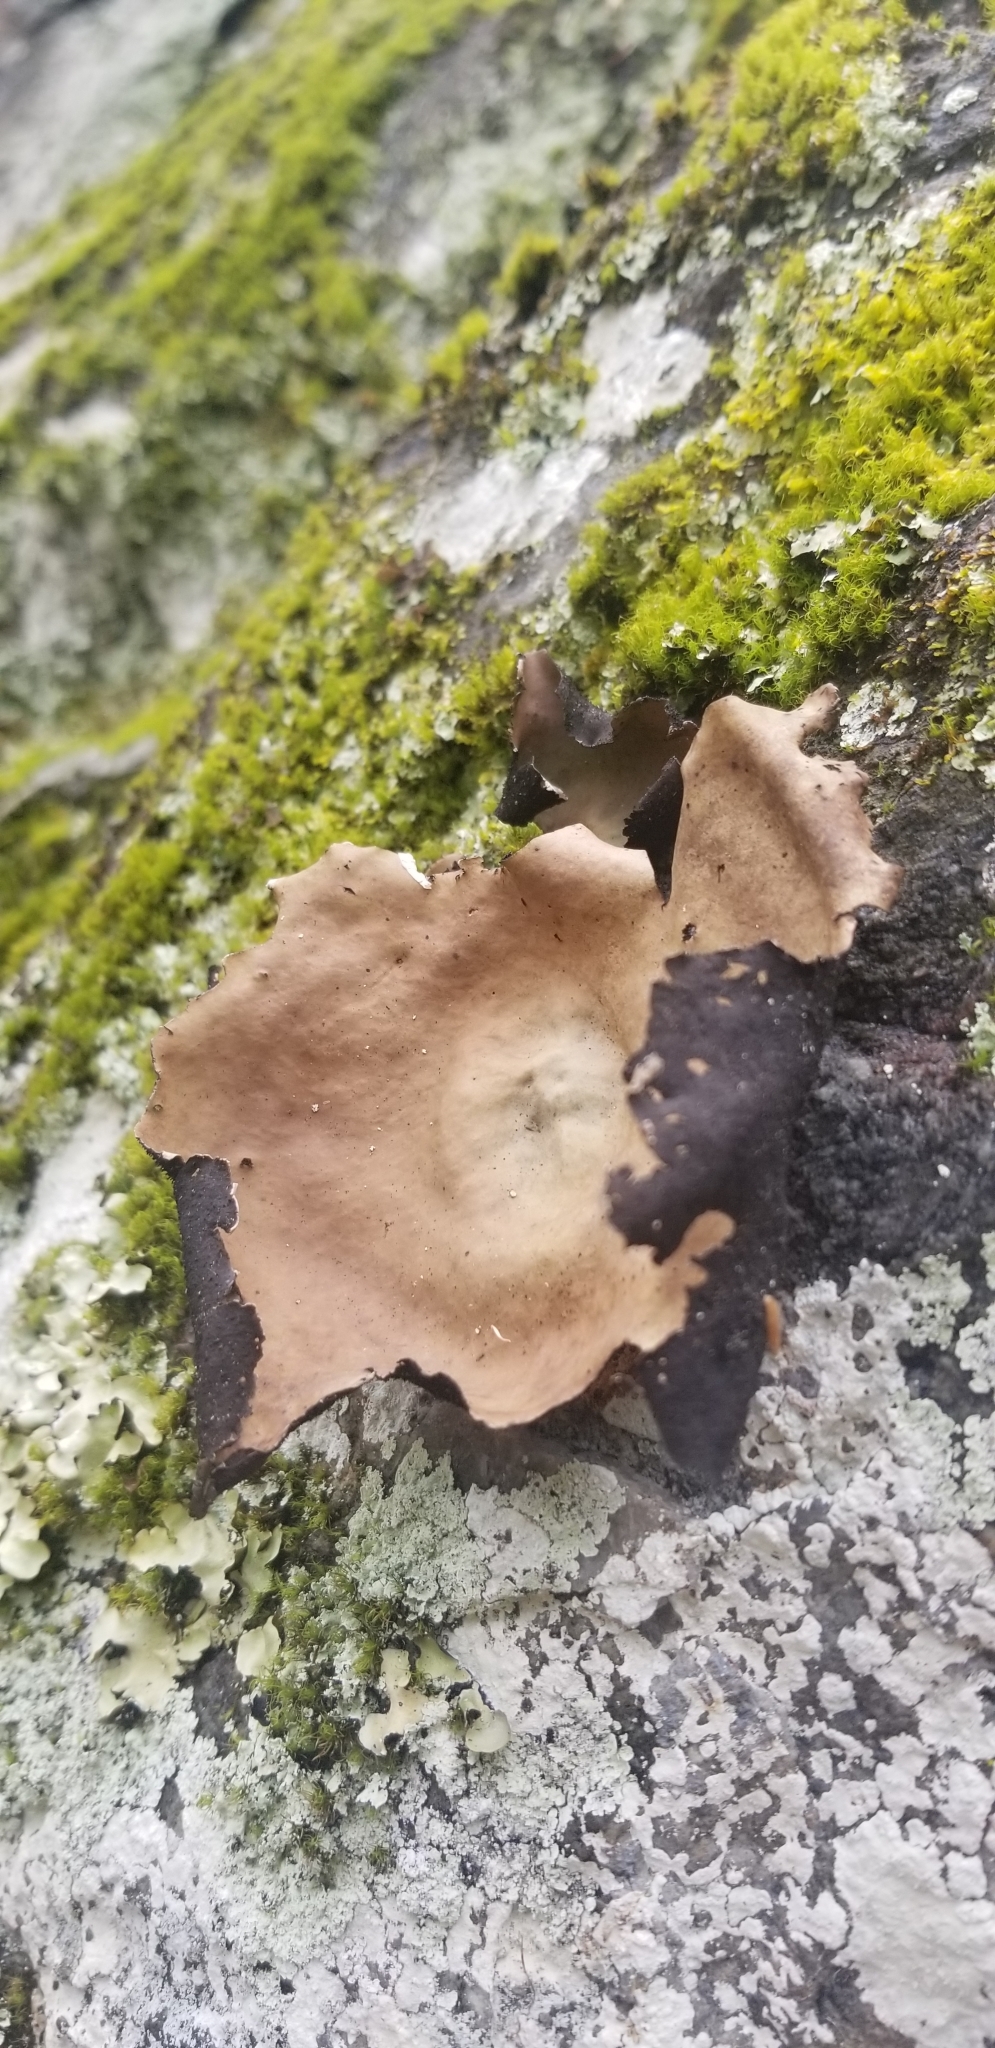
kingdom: Fungi
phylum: Ascomycota
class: Lecanoromycetes
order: Umbilicariales
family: Umbilicariaceae
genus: Umbilicaria
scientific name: Umbilicaria mammulata
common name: Smooth rock tripe
